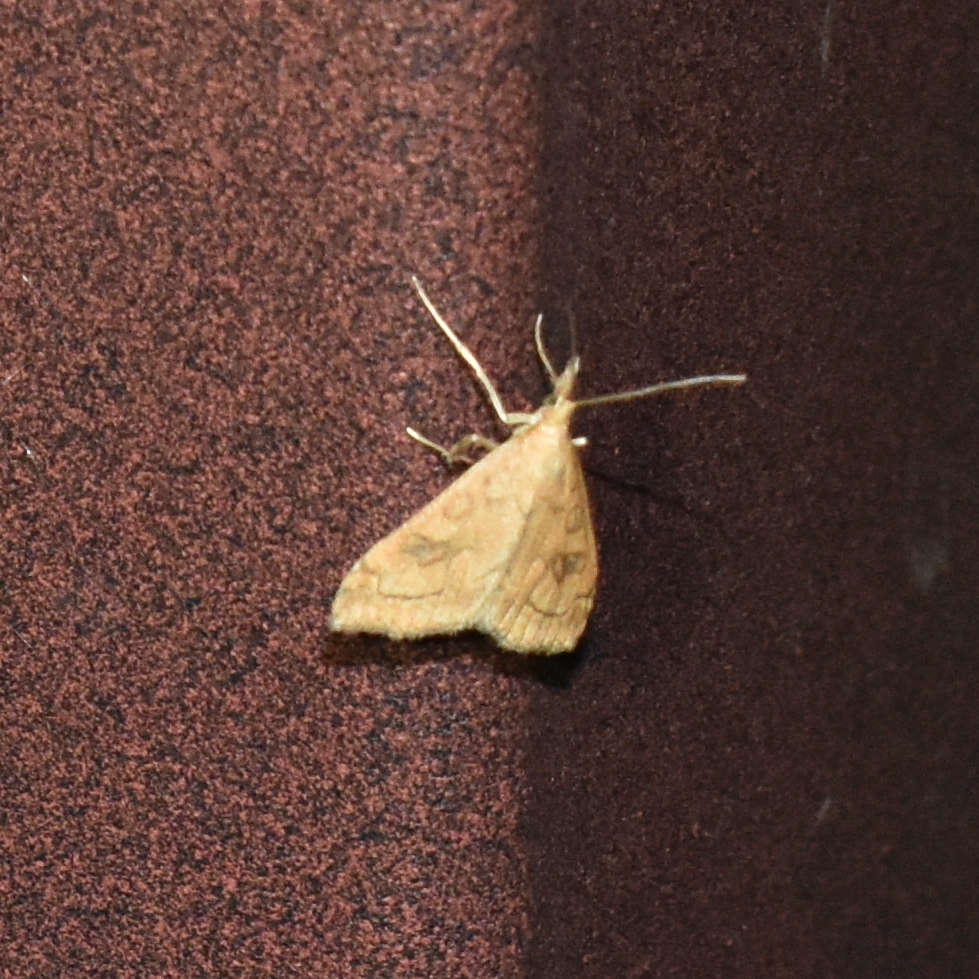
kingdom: Animalia
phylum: Arthropoda
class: Insecta
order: Lepidoptera
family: Crambidae
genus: Udea
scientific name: Udea profundalis
